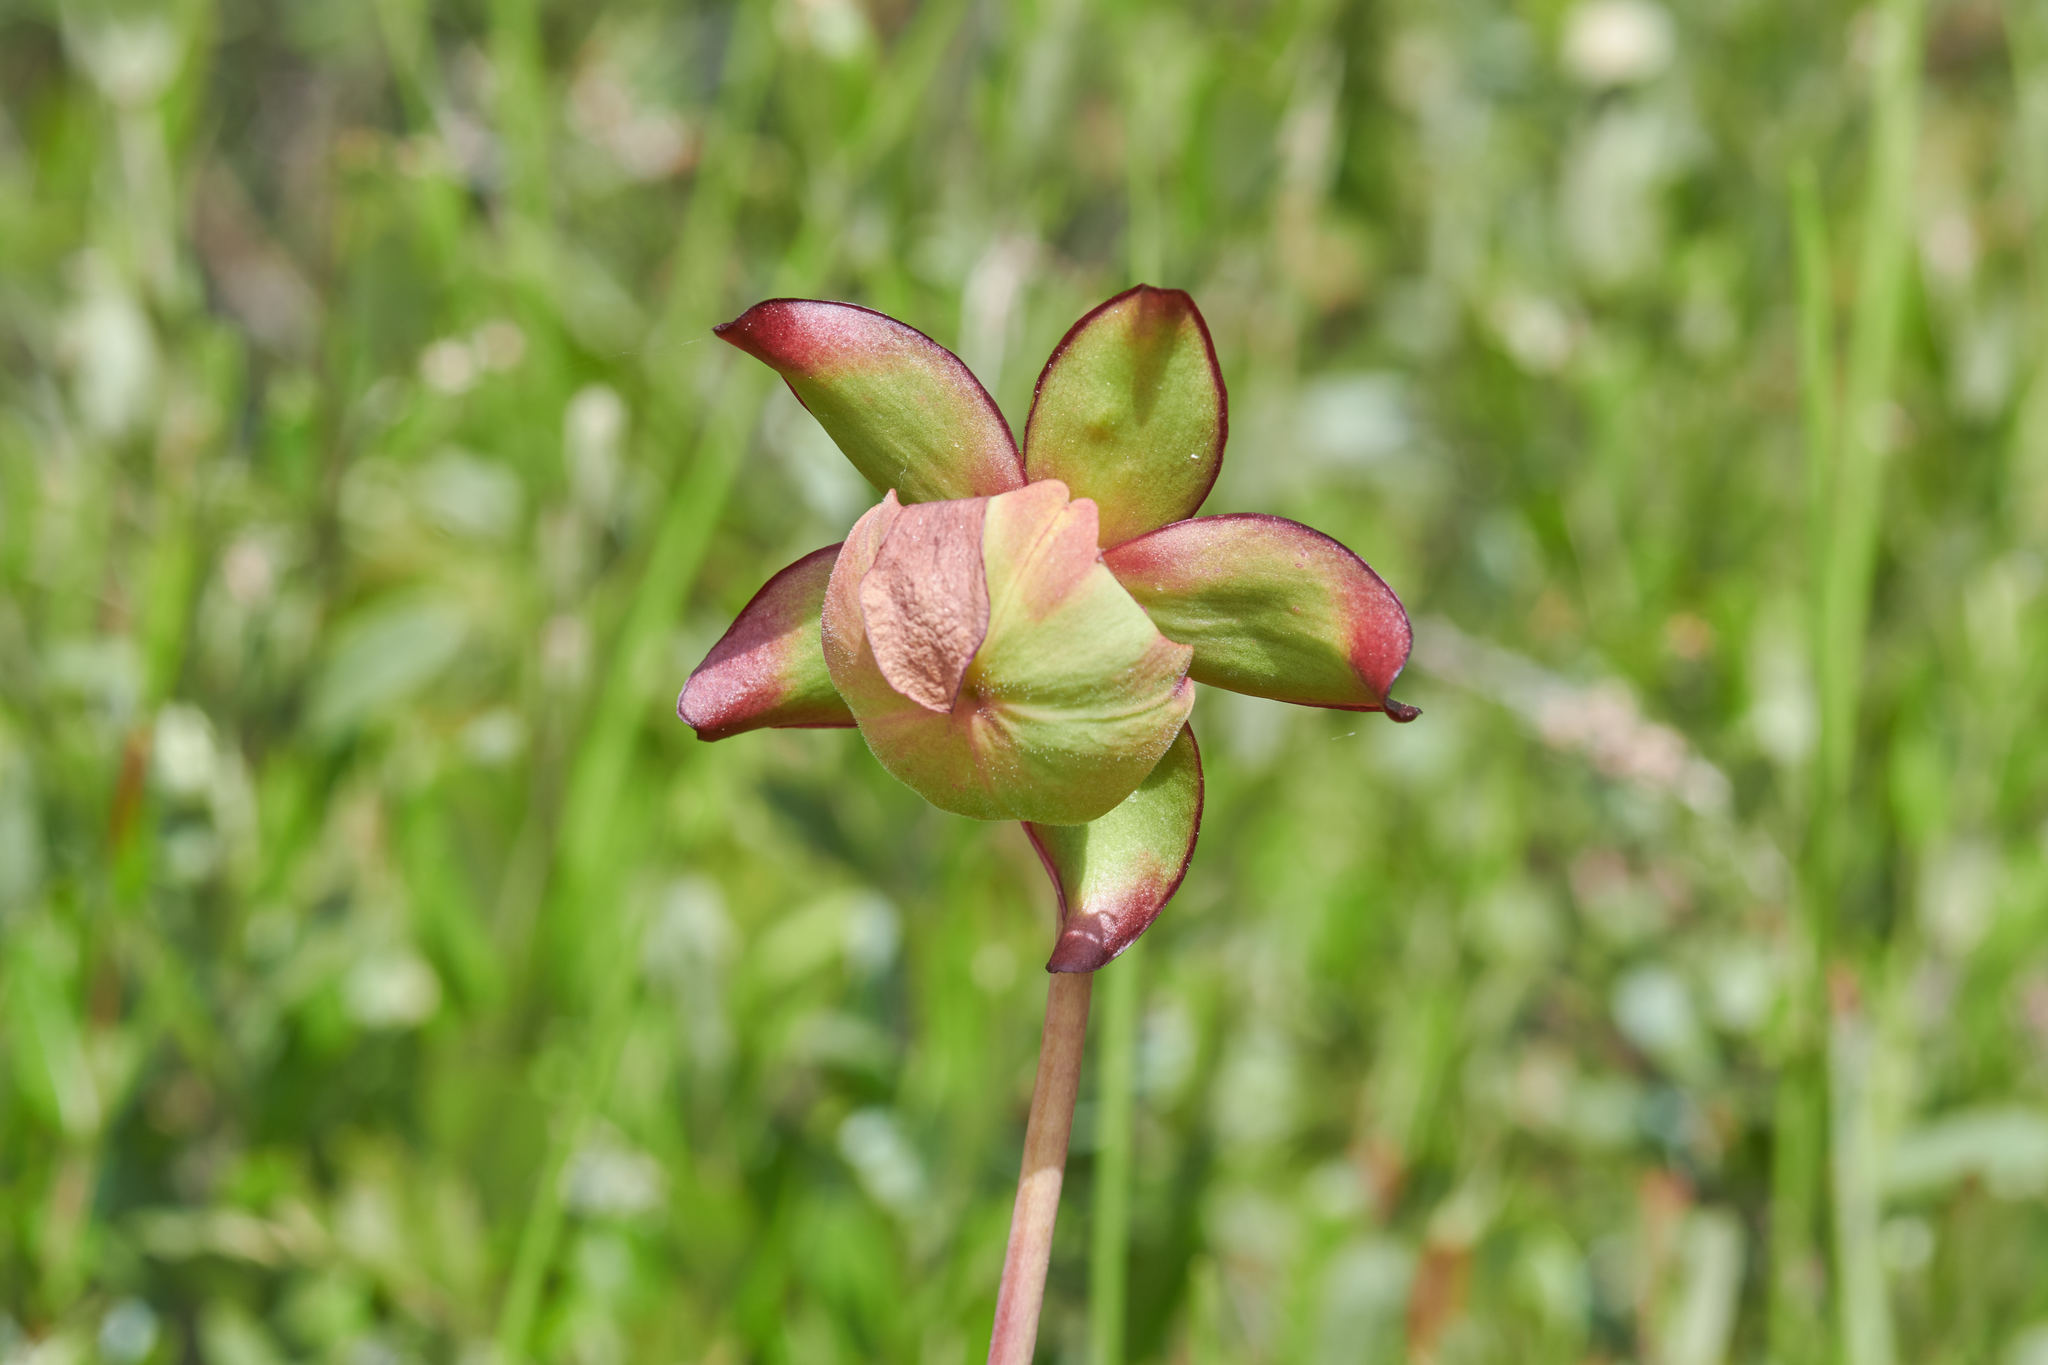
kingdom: Plantae
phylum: Tracheophyta
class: Magnoliopsida
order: Ericales
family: Sarraceniaceae
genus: Sarracenia
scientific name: Sarracenia purpurea
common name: Pitcherplant
